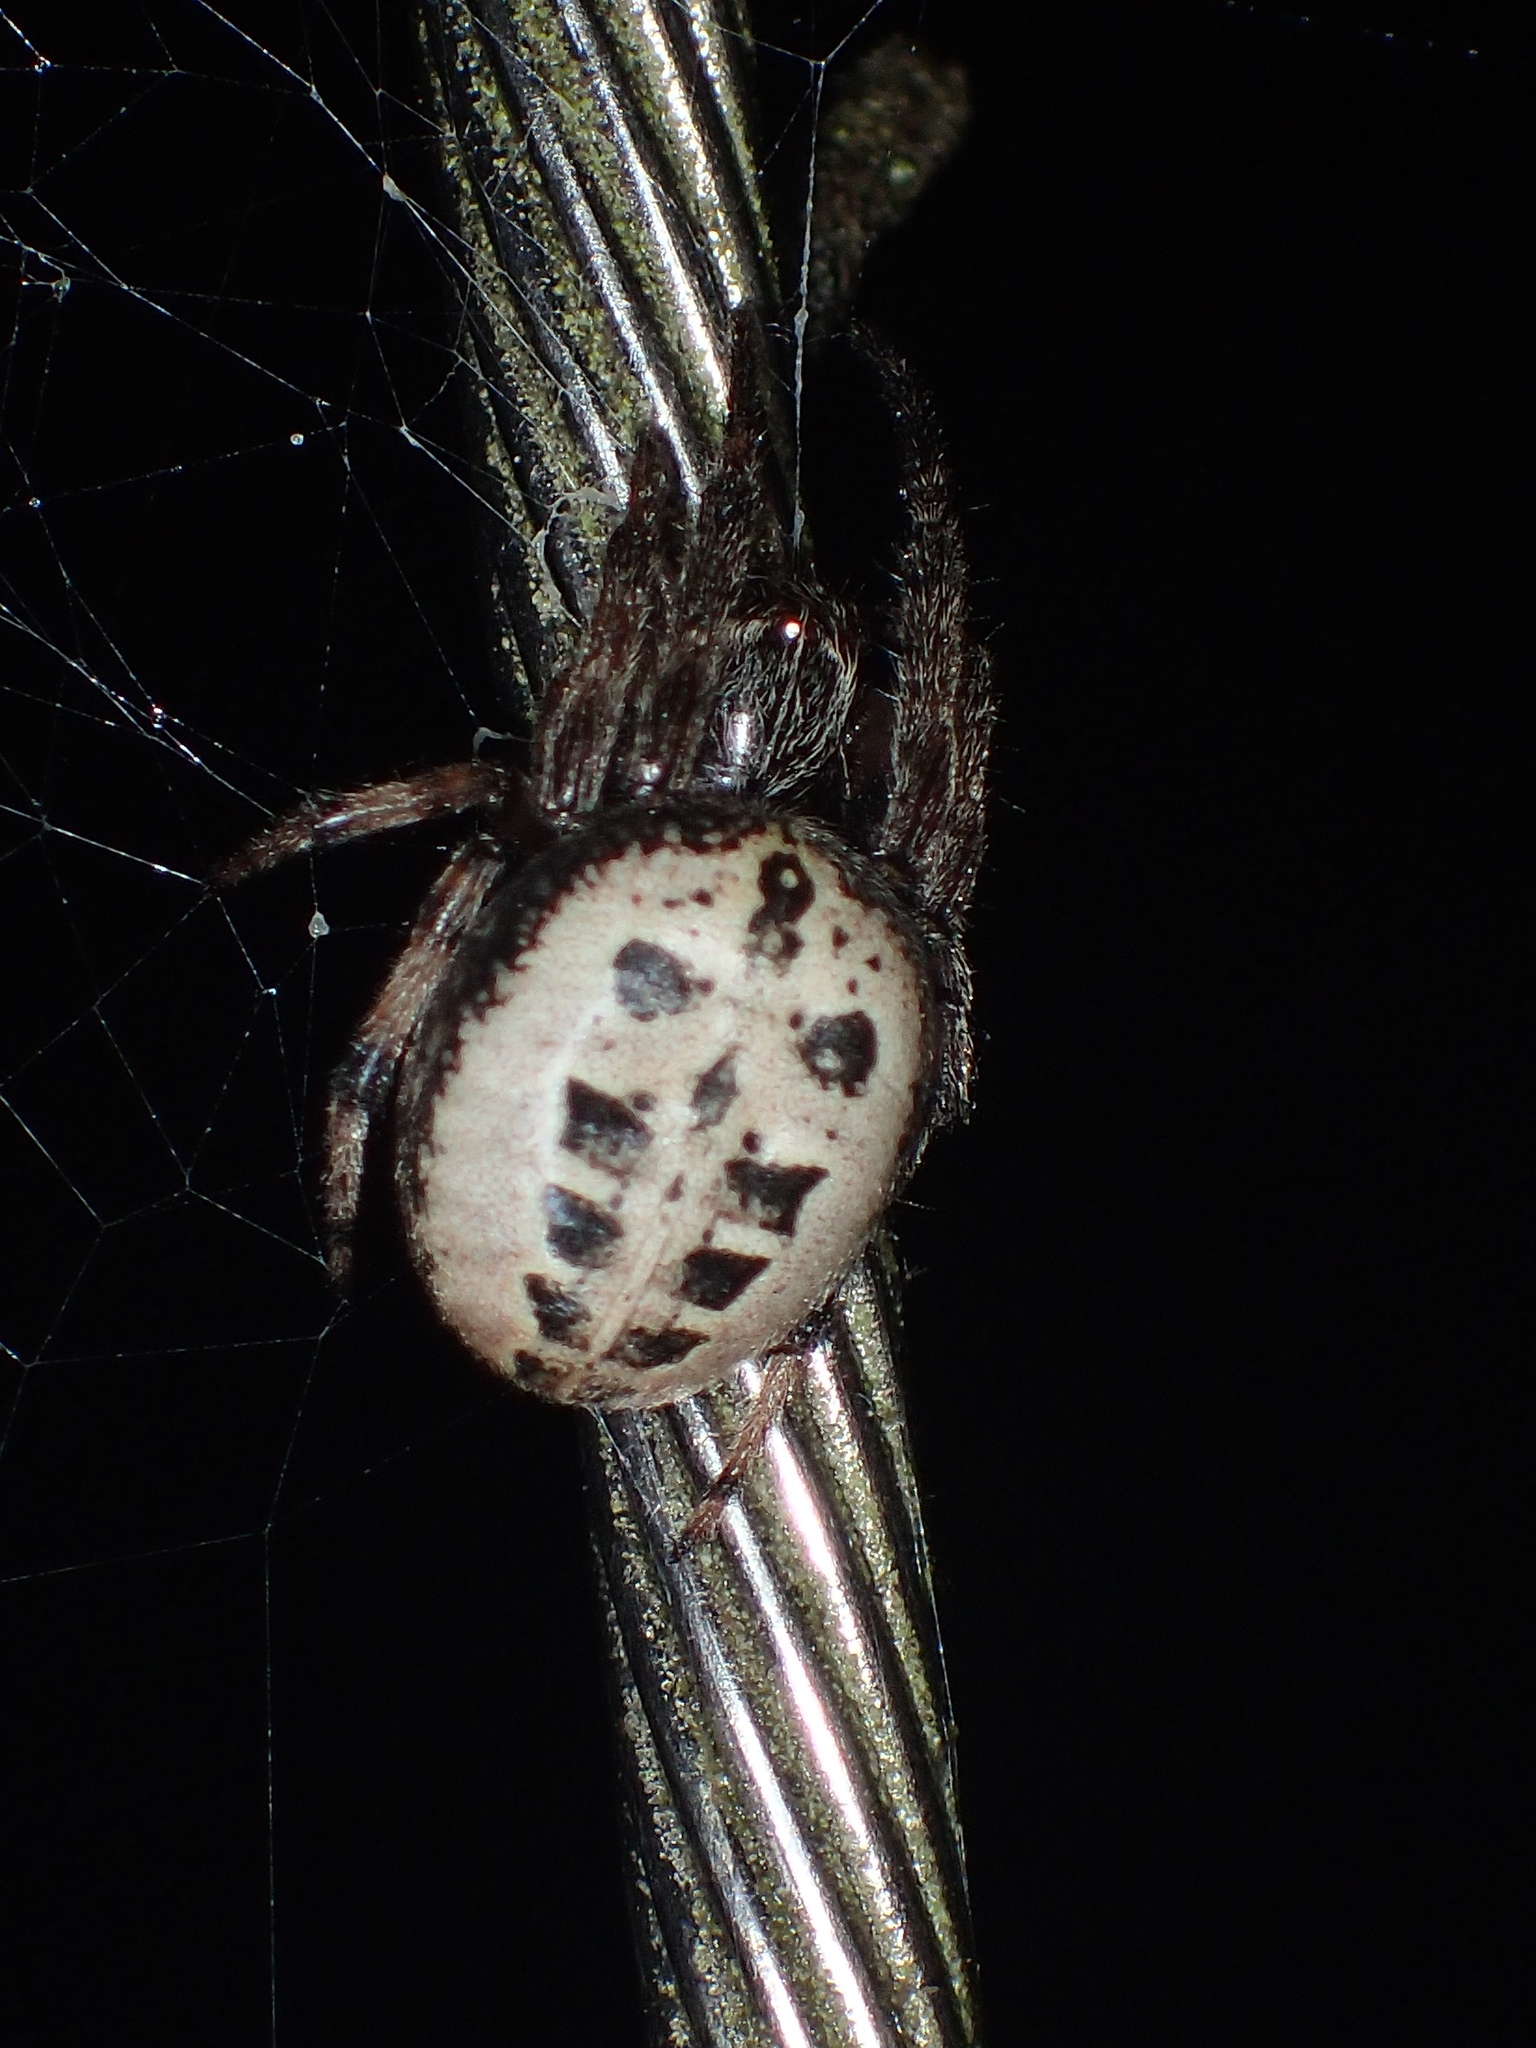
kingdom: Animalia
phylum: Arthropoda
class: Arachnida
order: Araneae
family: Araneidae
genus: Larinioides
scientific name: Larinioides cornutus
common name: Furrow orbweaver
